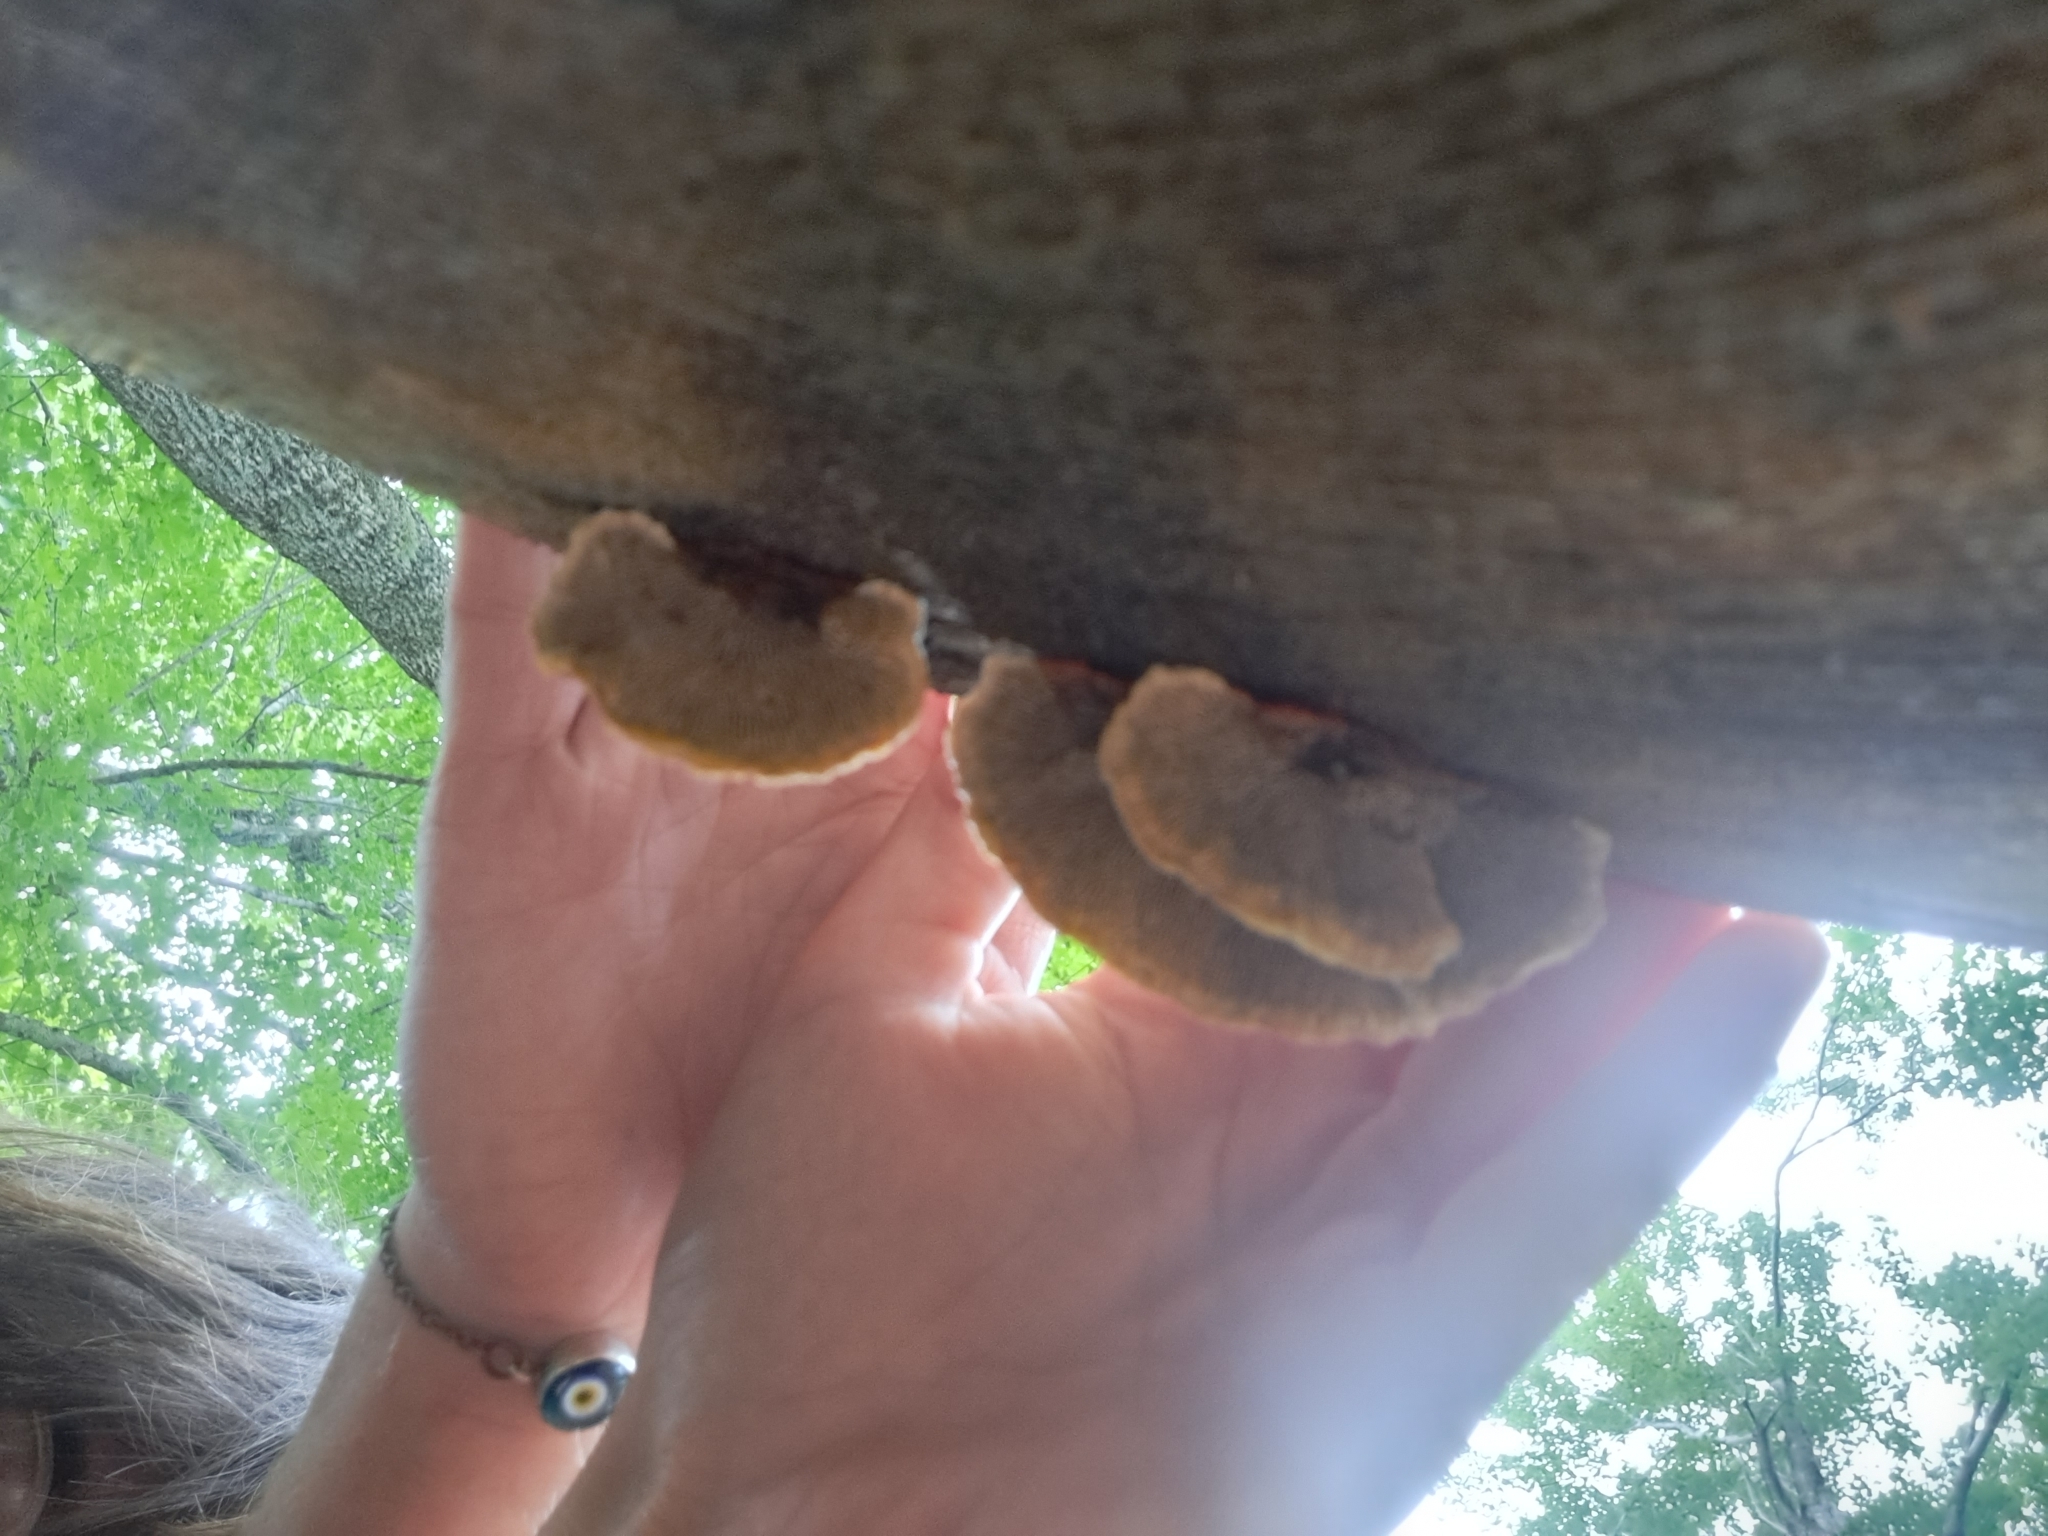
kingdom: Fungi
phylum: Basidiomycota
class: Agaricomycetes
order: Gloeophyllales
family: Gloeophyllaceae
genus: Gloeophyllum
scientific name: Gloeophyllum sepiarium
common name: Conifer mazegill
